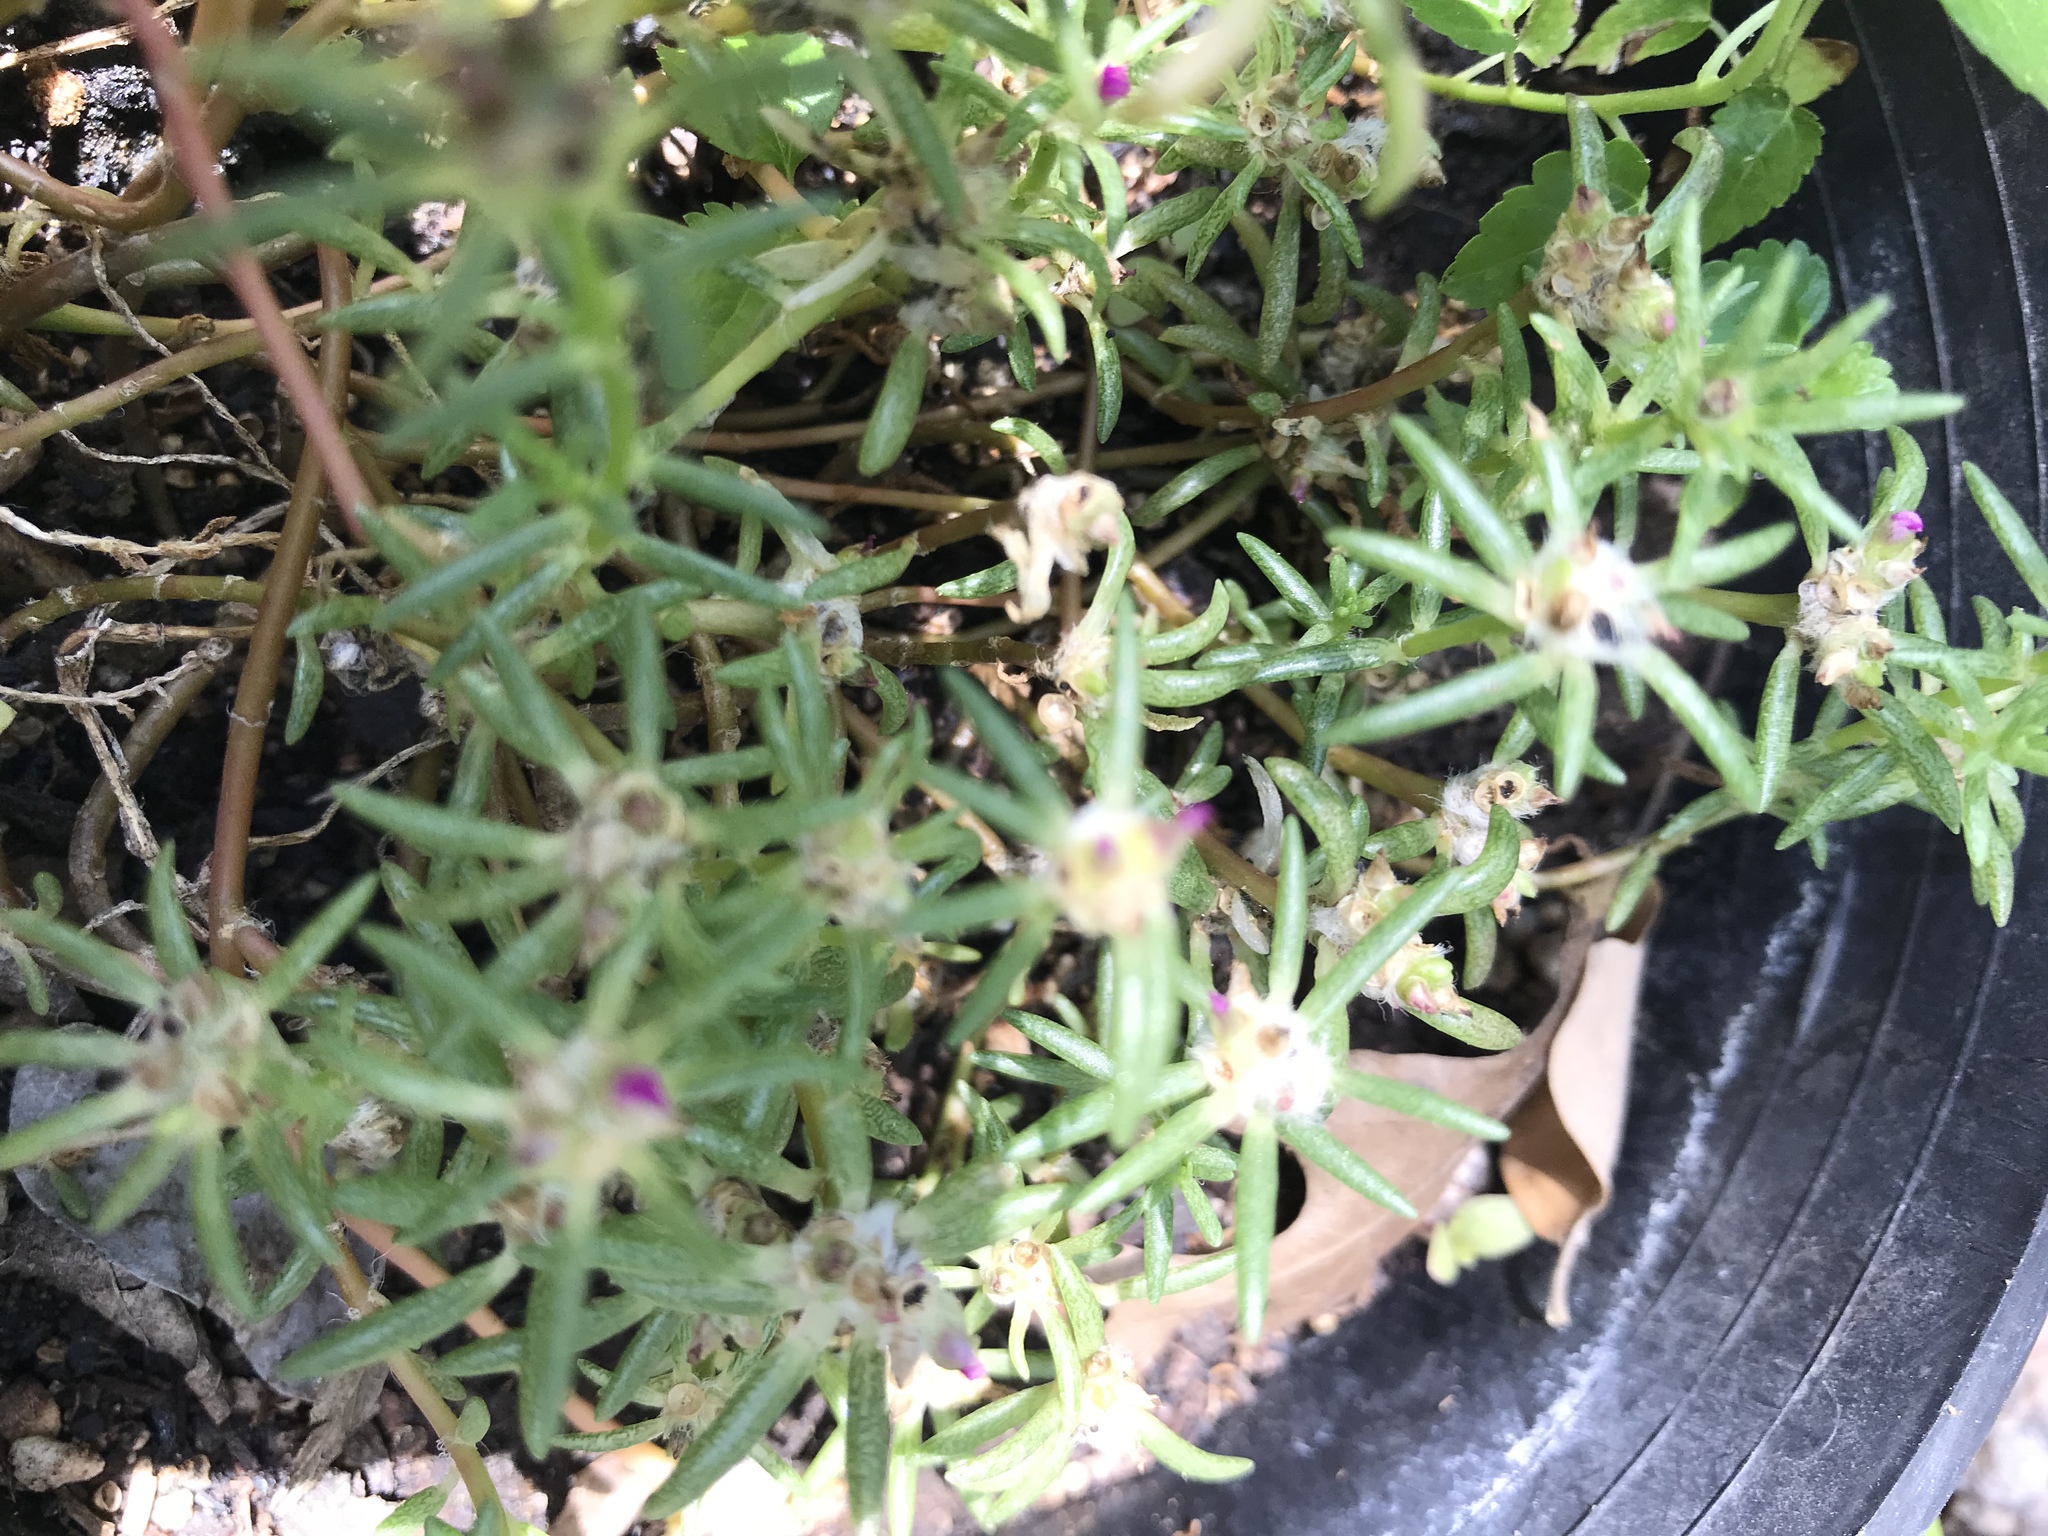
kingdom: Plantae
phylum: Tracheophyta
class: Magnoliopsida
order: Caryophyllales
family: Portulacaceae
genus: Portulaca
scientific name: Portulaca pilosa
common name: Kiss me quick
